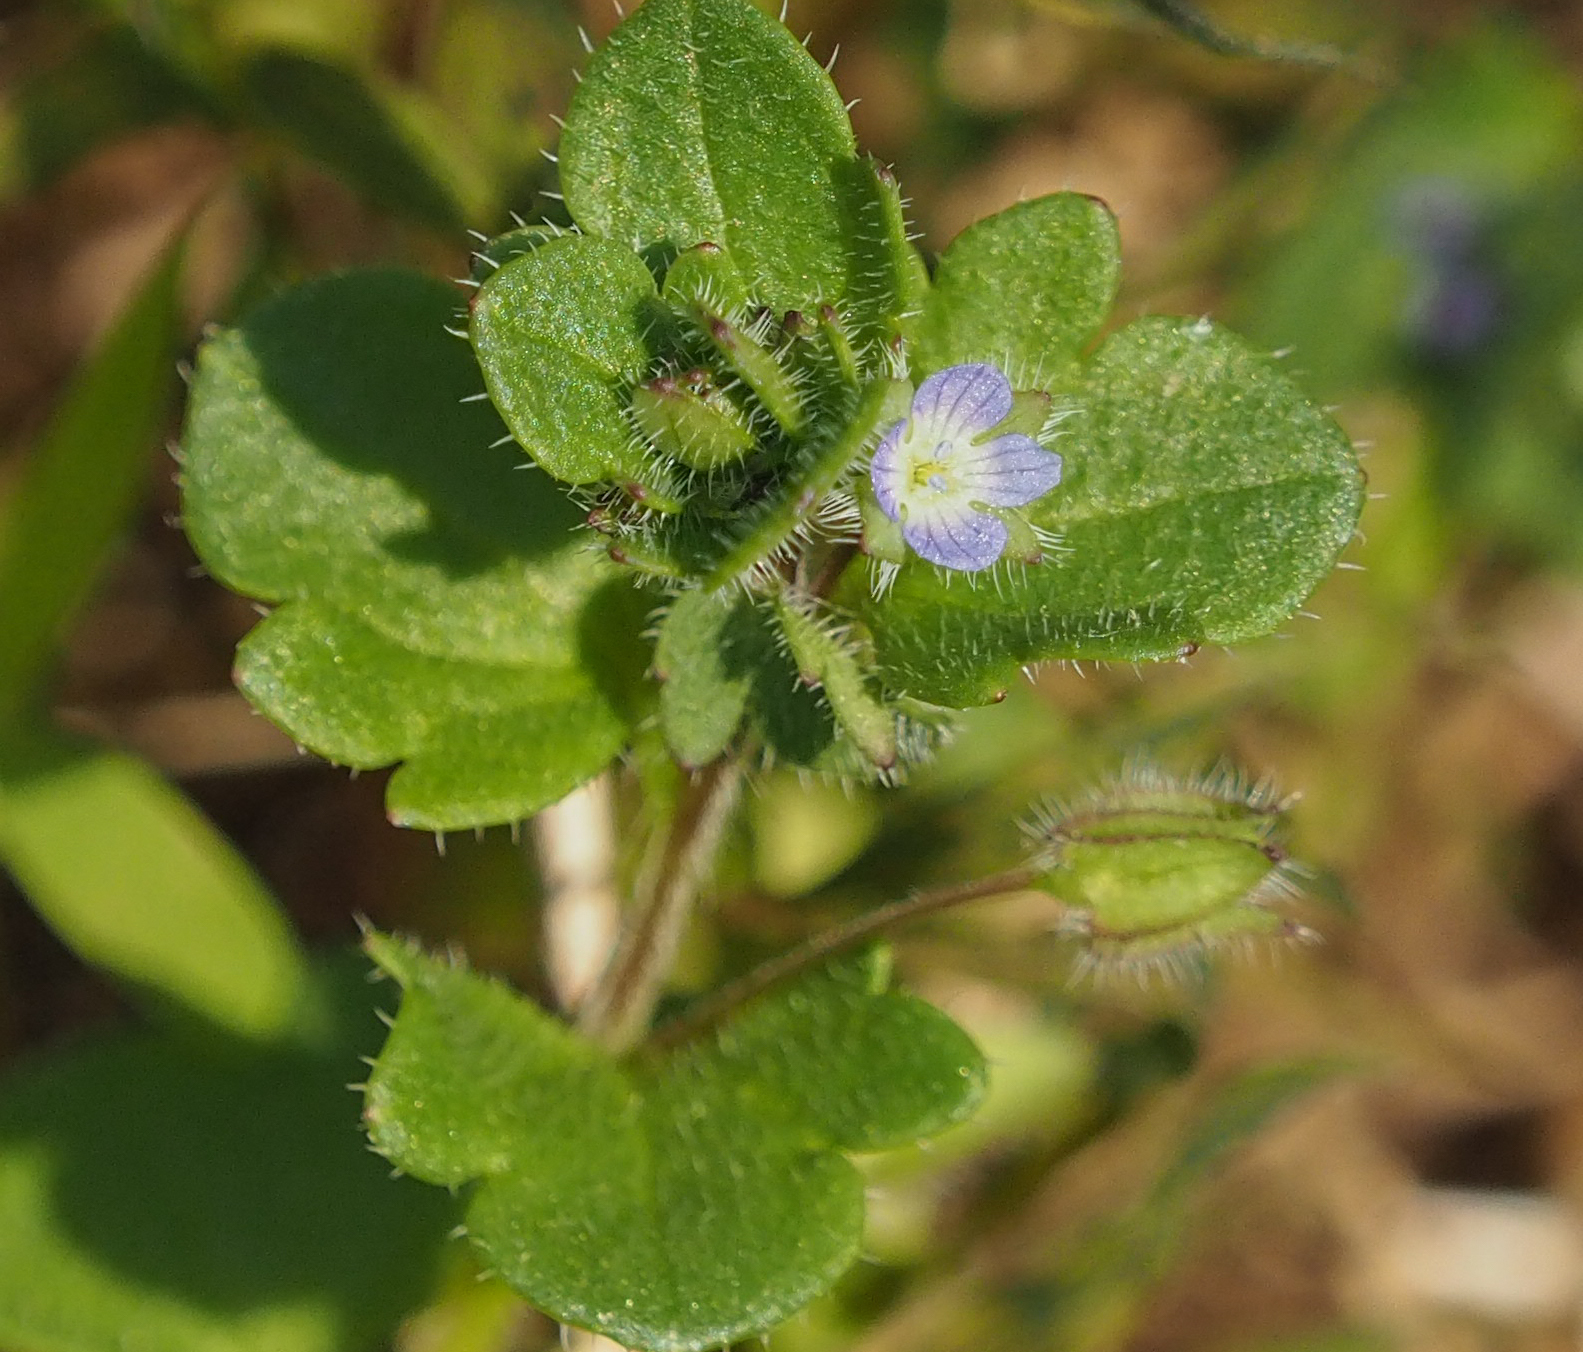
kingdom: Plantae
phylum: Tracheophyta
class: Magnoliopsida
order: Lamiales
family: Plantaginaceae
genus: Veronica
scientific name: Veronica hederifolia
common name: Ivy-leaved speedwell
